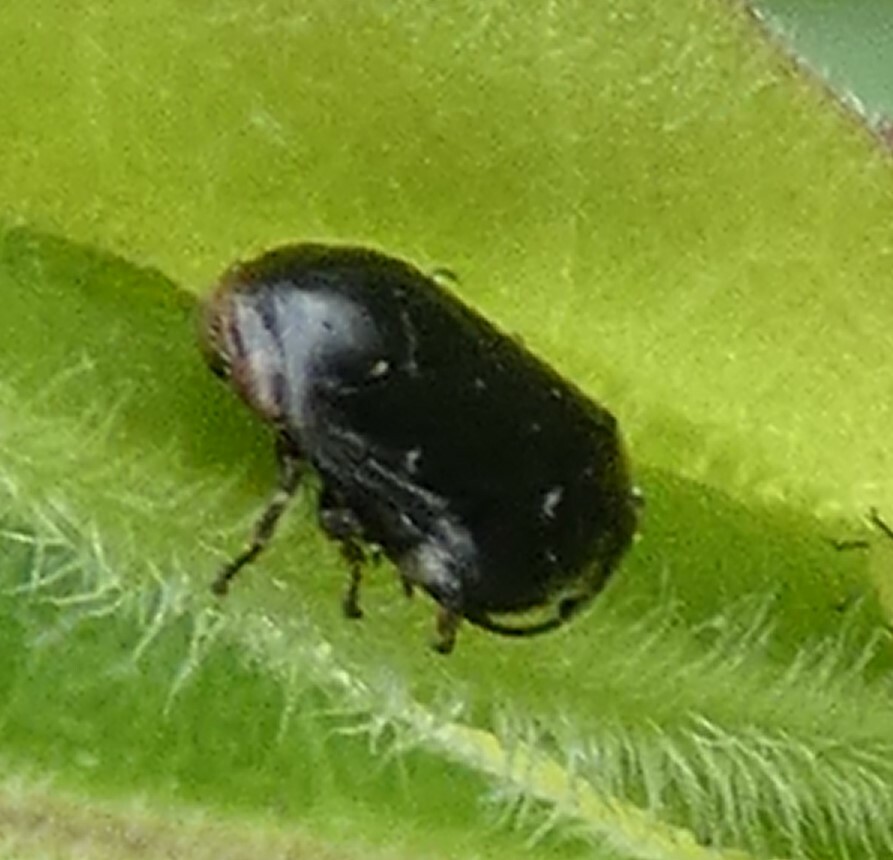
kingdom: Animalia
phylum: Arthropoda
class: Insecta
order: Hemiptera
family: Clastopteridae
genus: Clastoptera
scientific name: Clastoptera xanthocephala
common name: Sunflower spittlebug
